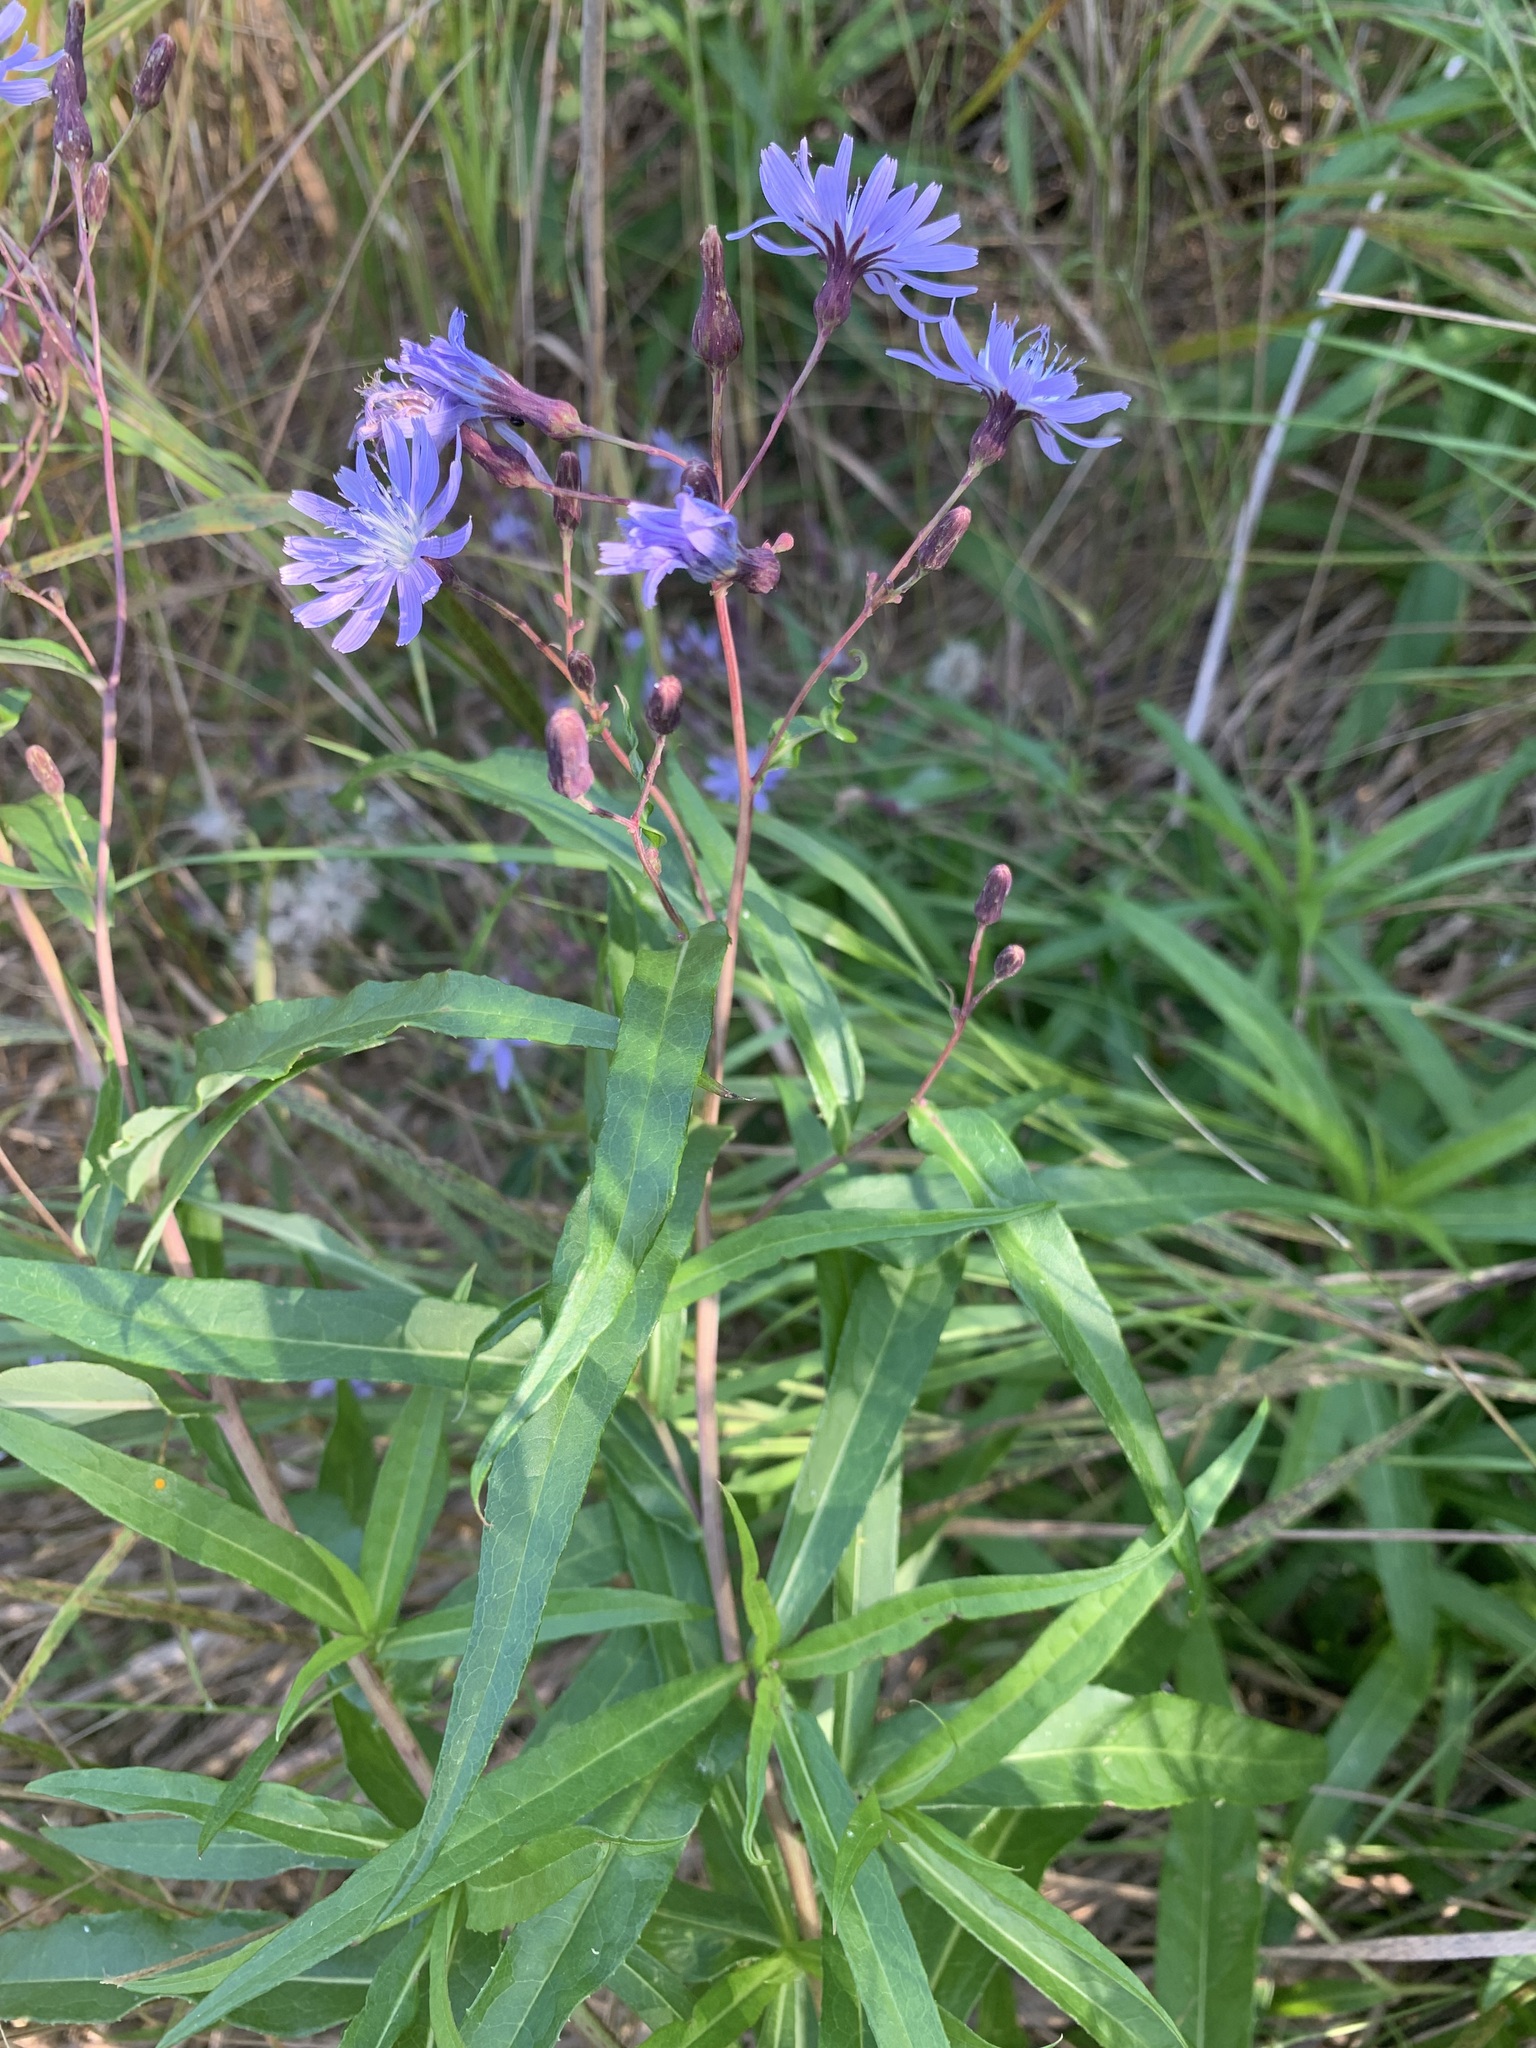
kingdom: Plantae
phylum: Tracheophyta
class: Magnoliopsida
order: Asterales
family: Asteraceae
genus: Lactuca
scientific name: Lactuca sibirica
